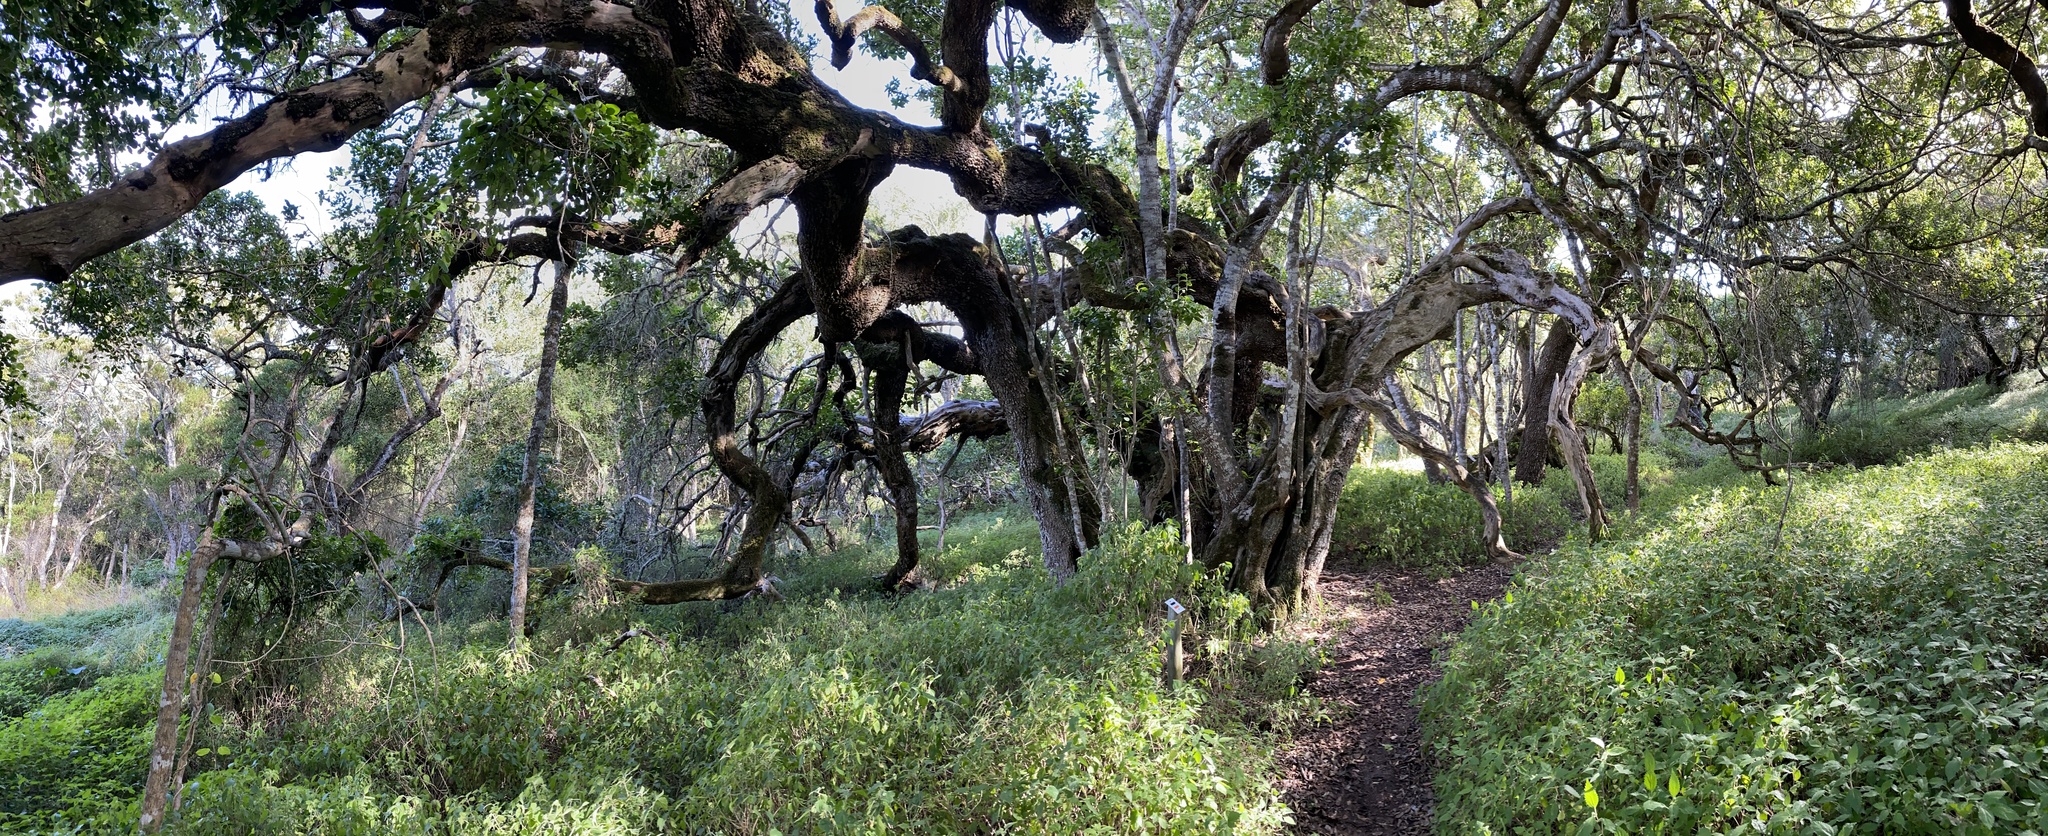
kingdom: Plantae
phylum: Tracheophyta
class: Magnoliopsida
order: Ericales
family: Sapotaceae
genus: Sideroxylon
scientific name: Sideroxylon inerme
